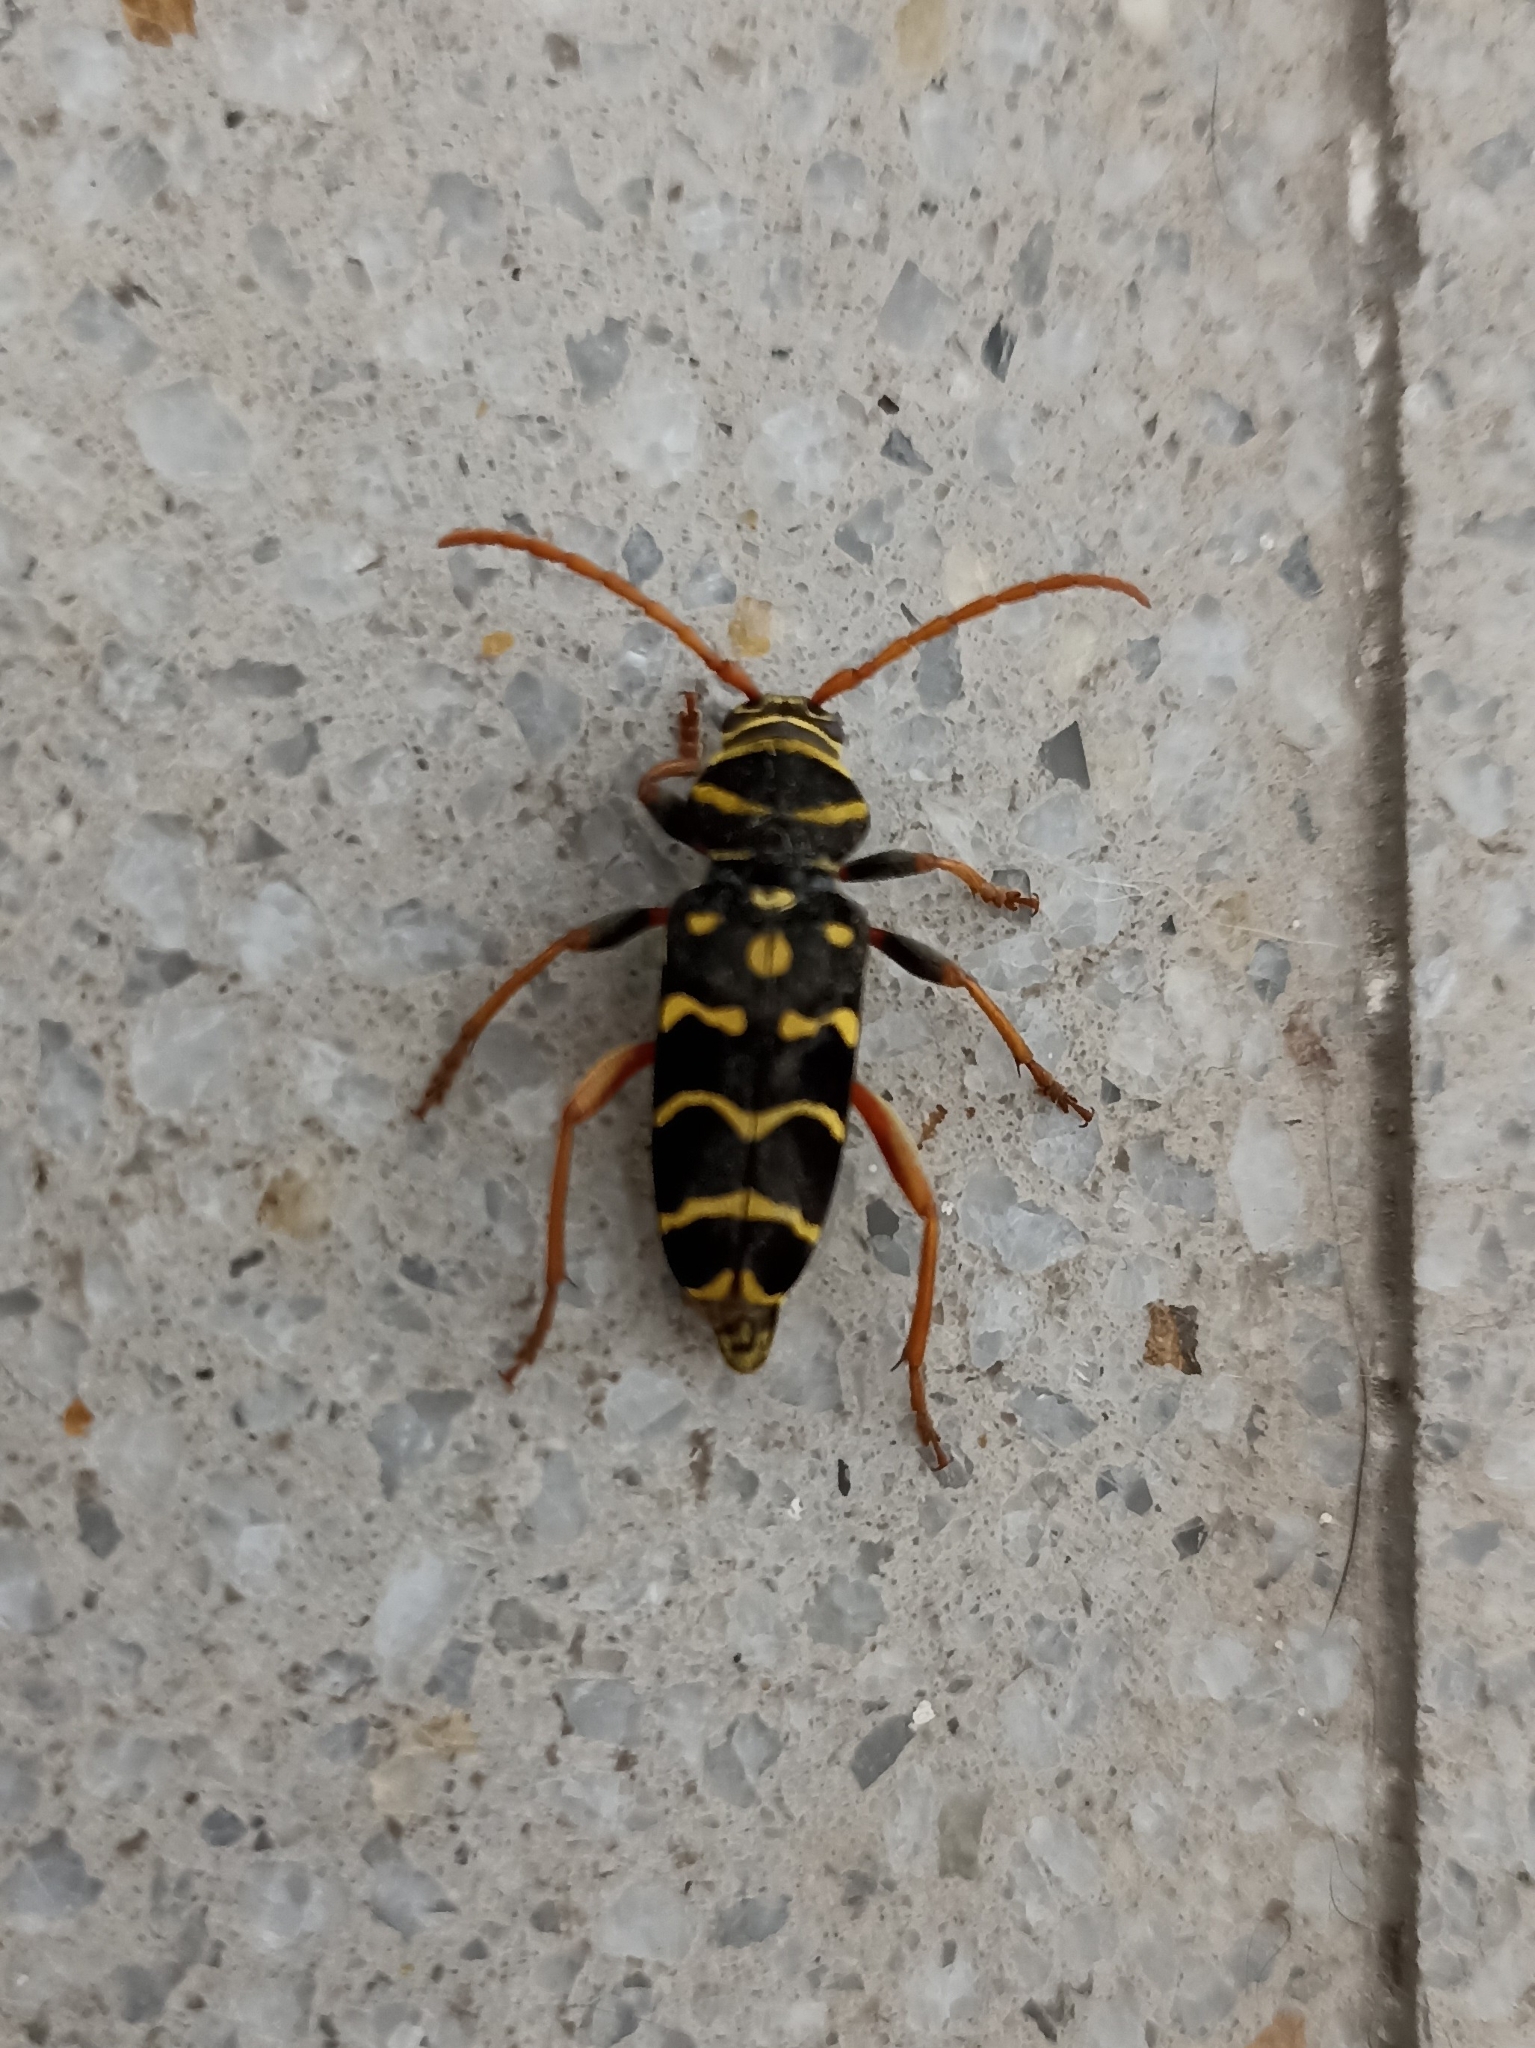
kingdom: Animalia
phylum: Arthropoda
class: Insecta
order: Coleoptera
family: Cerambycidae
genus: Plagionotus
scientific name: Plagionotus arcuatus
